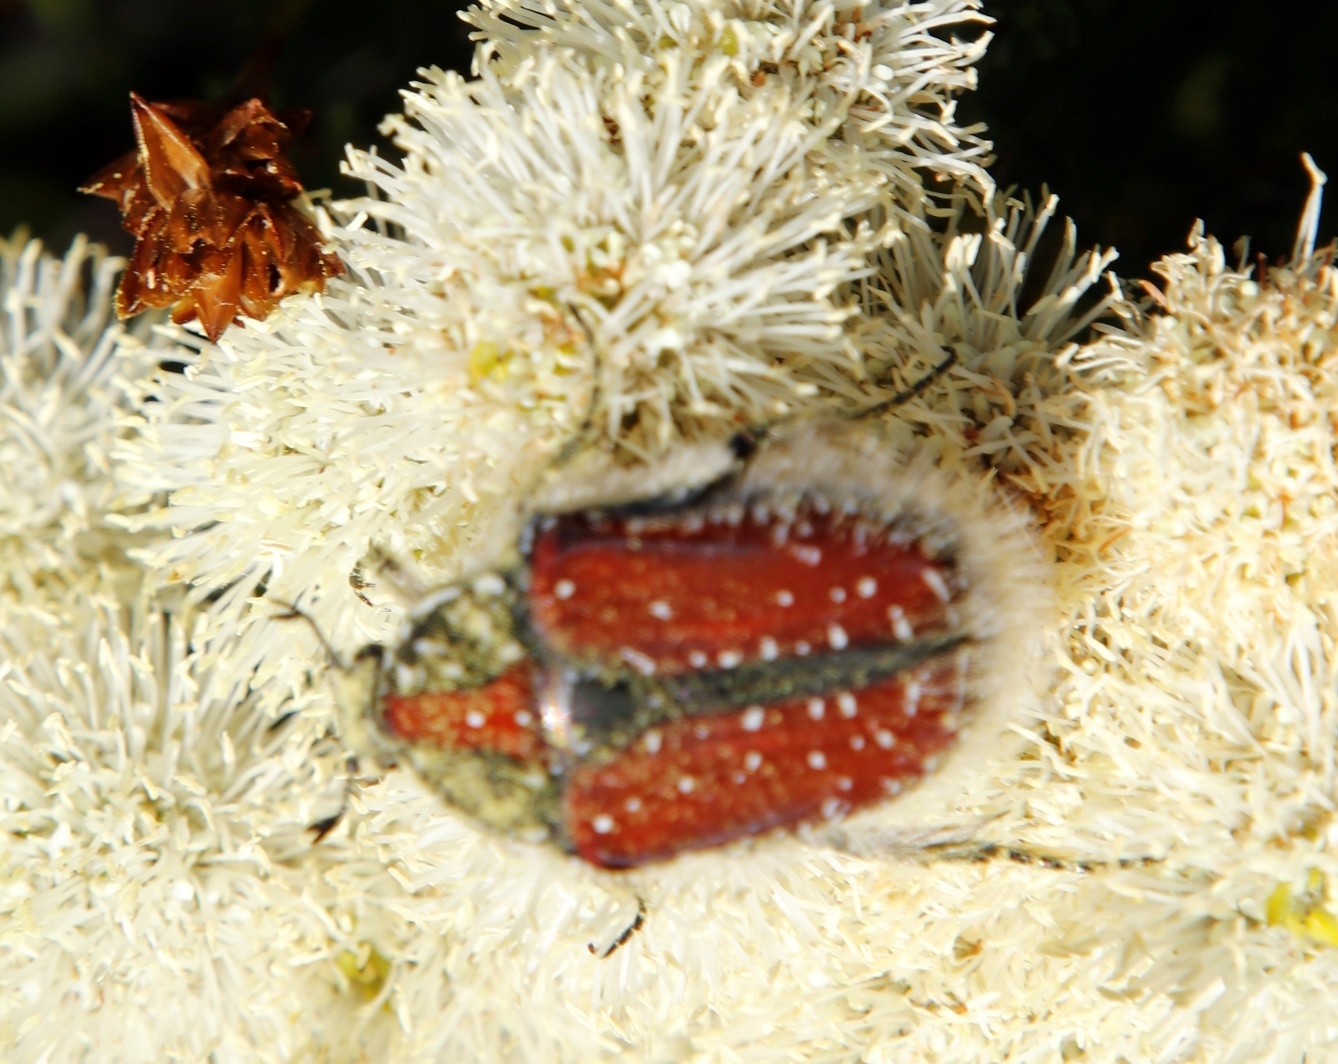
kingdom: Animalia
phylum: Arthropoda
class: Insecta
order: Coleoptera
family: Scarabaeidae
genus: Trichostetha
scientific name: Trichostetha capensis
